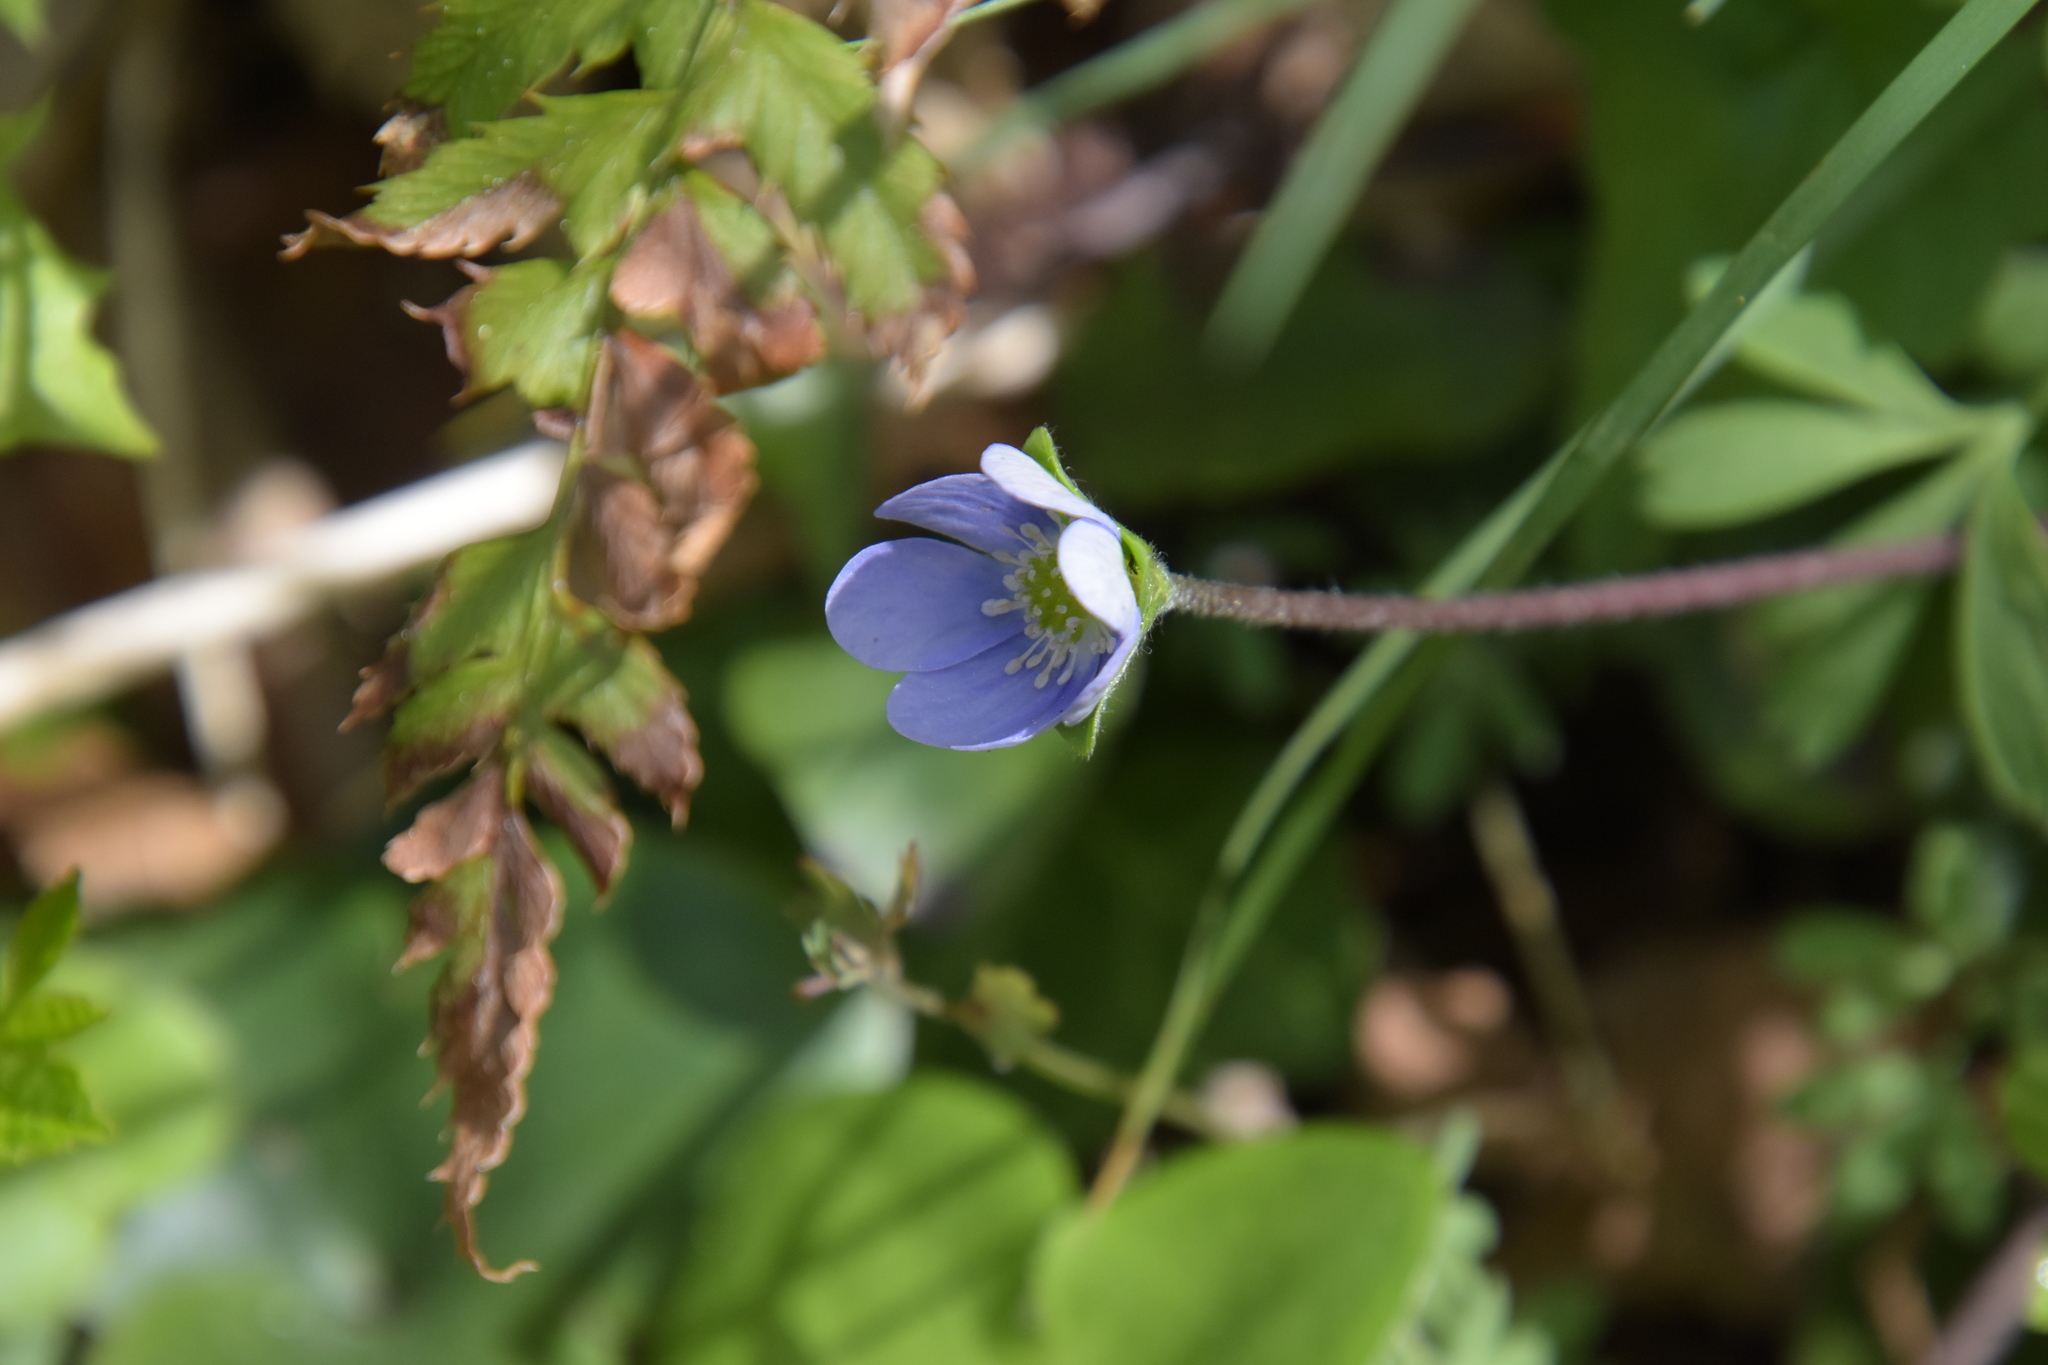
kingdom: Plantae
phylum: Tracheophyta
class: Magnoliopsida
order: Ranunculales
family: Ranunculaceae
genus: Hepatica
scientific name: Hepatica nobilis
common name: Liverleaf
